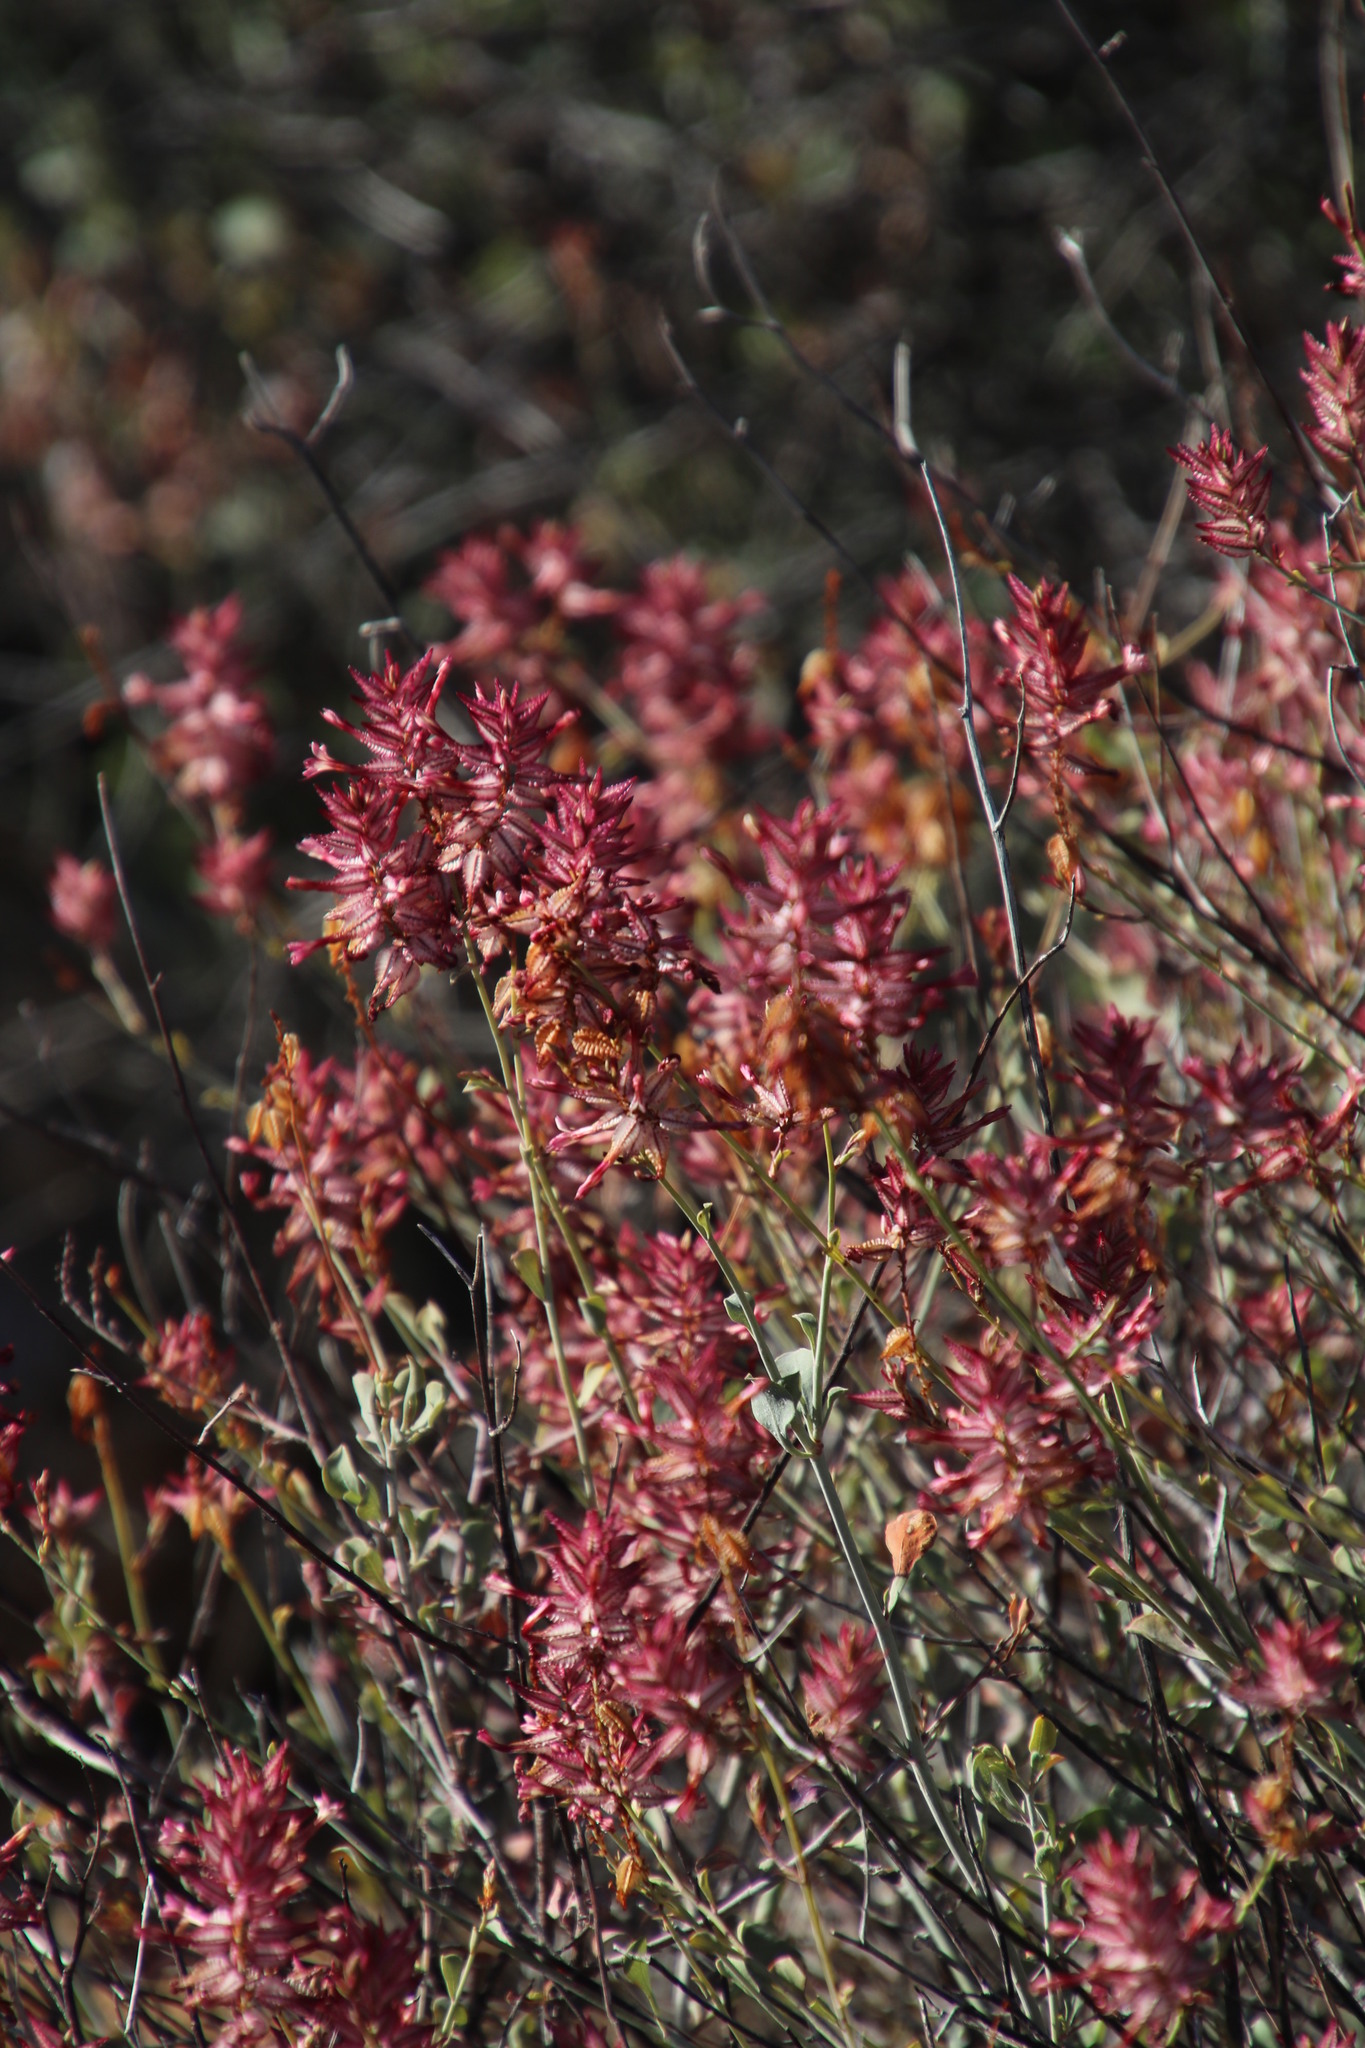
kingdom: Plantae
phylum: Tracheophyta
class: Magnoliopsida
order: Caryophyllales
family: Plumbaginaceae
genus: Dyerophytum
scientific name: Dyerophytum africanum
